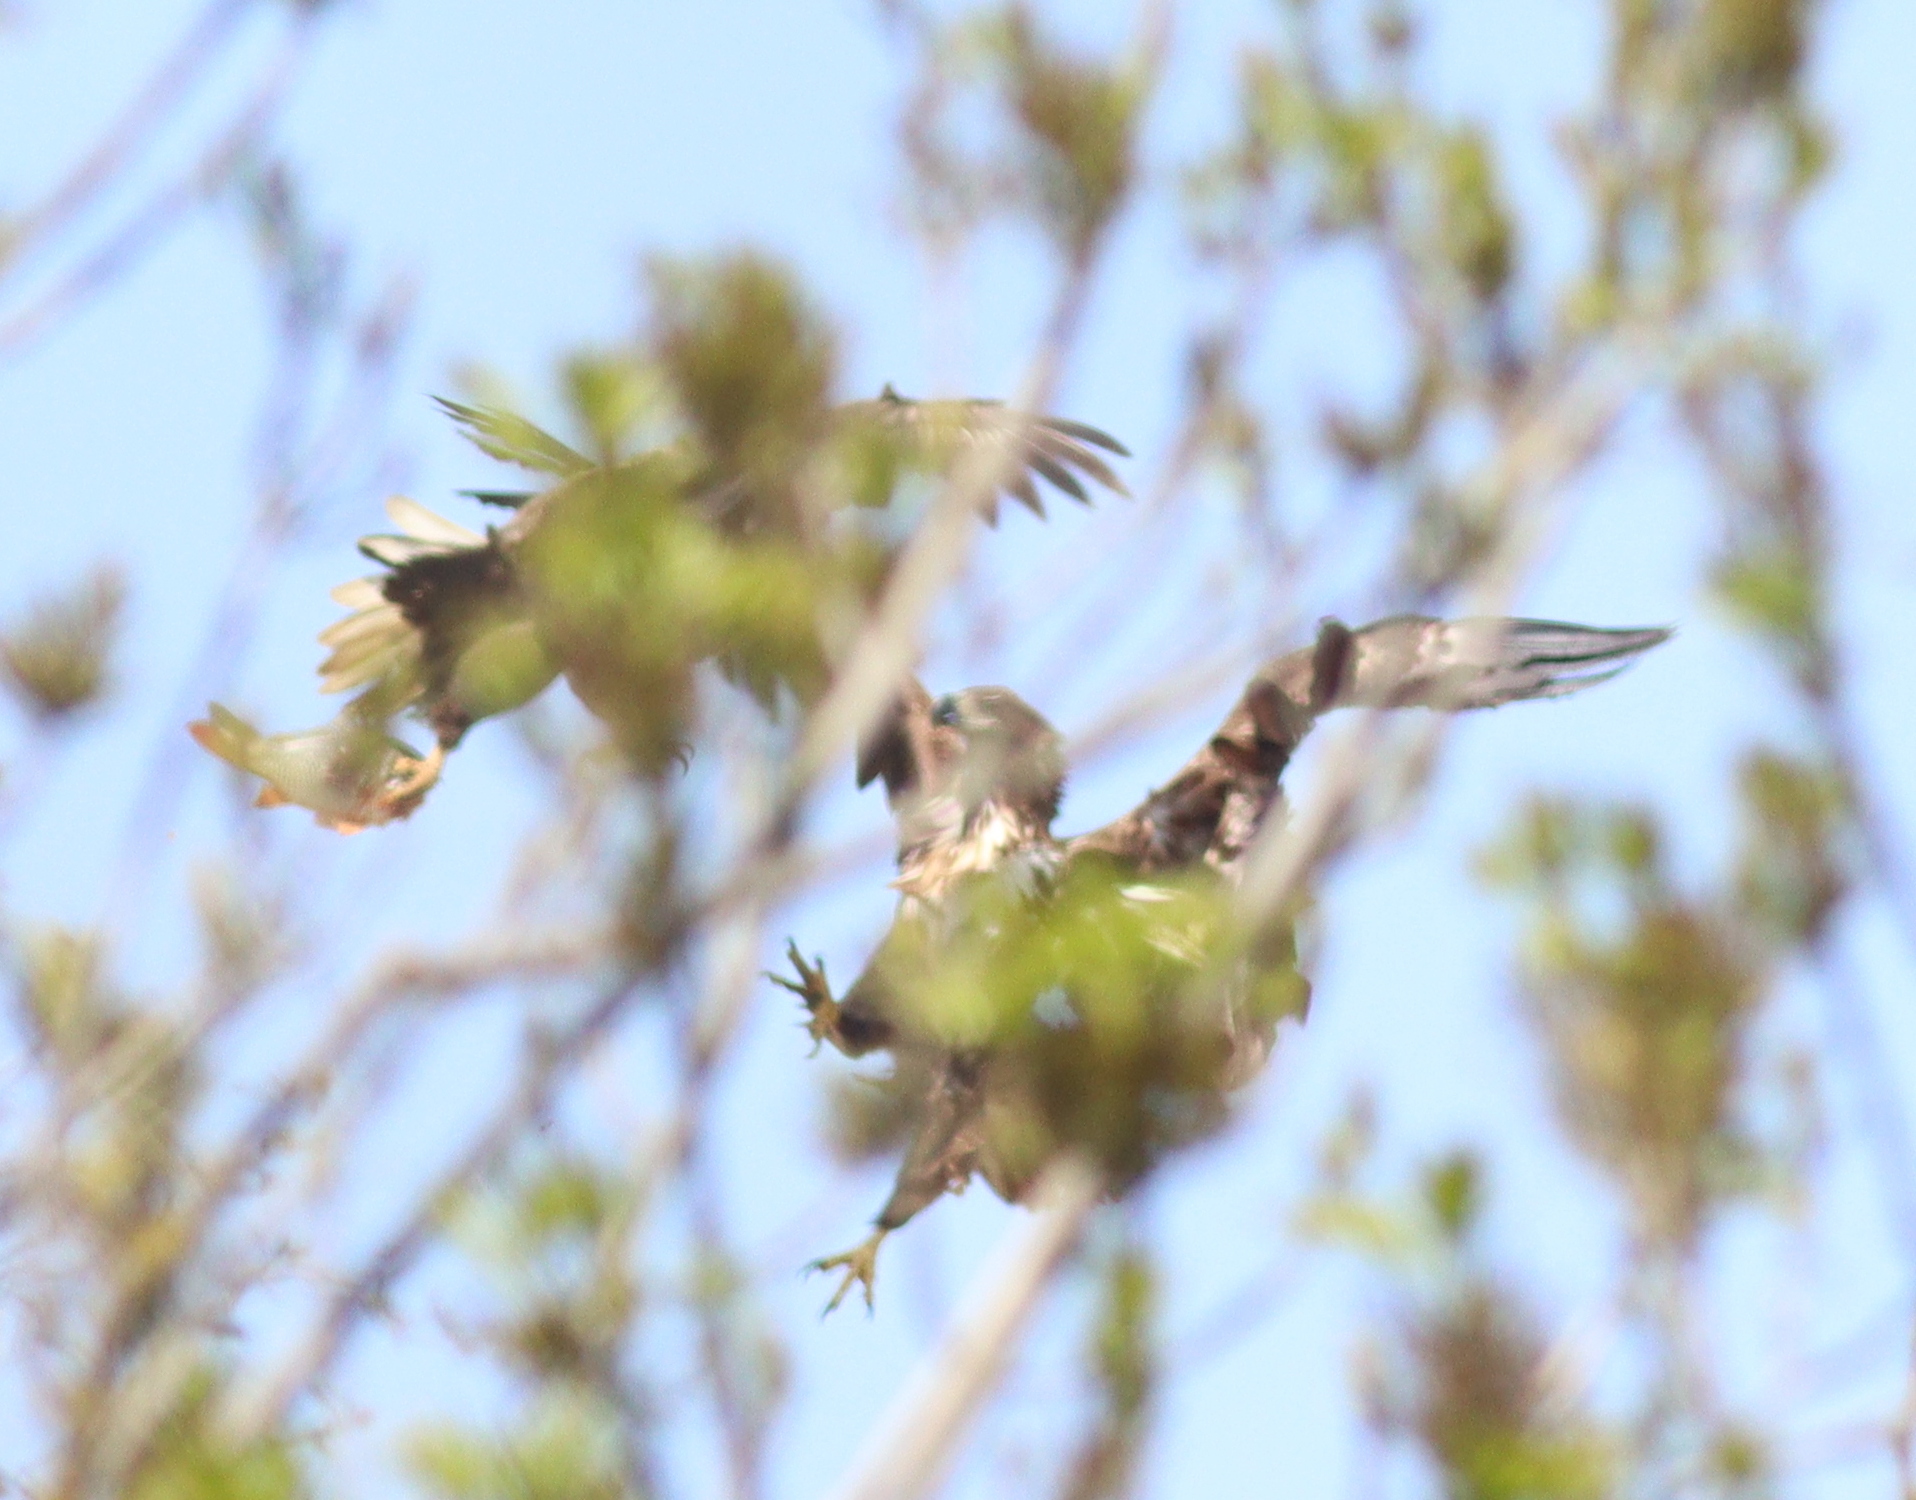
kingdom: Animalia
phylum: Chordata
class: Aves
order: Accipitriformes
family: Accipitridae
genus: Haliaeetus
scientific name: Haliaeetus albicilla
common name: White-tailed eagle
